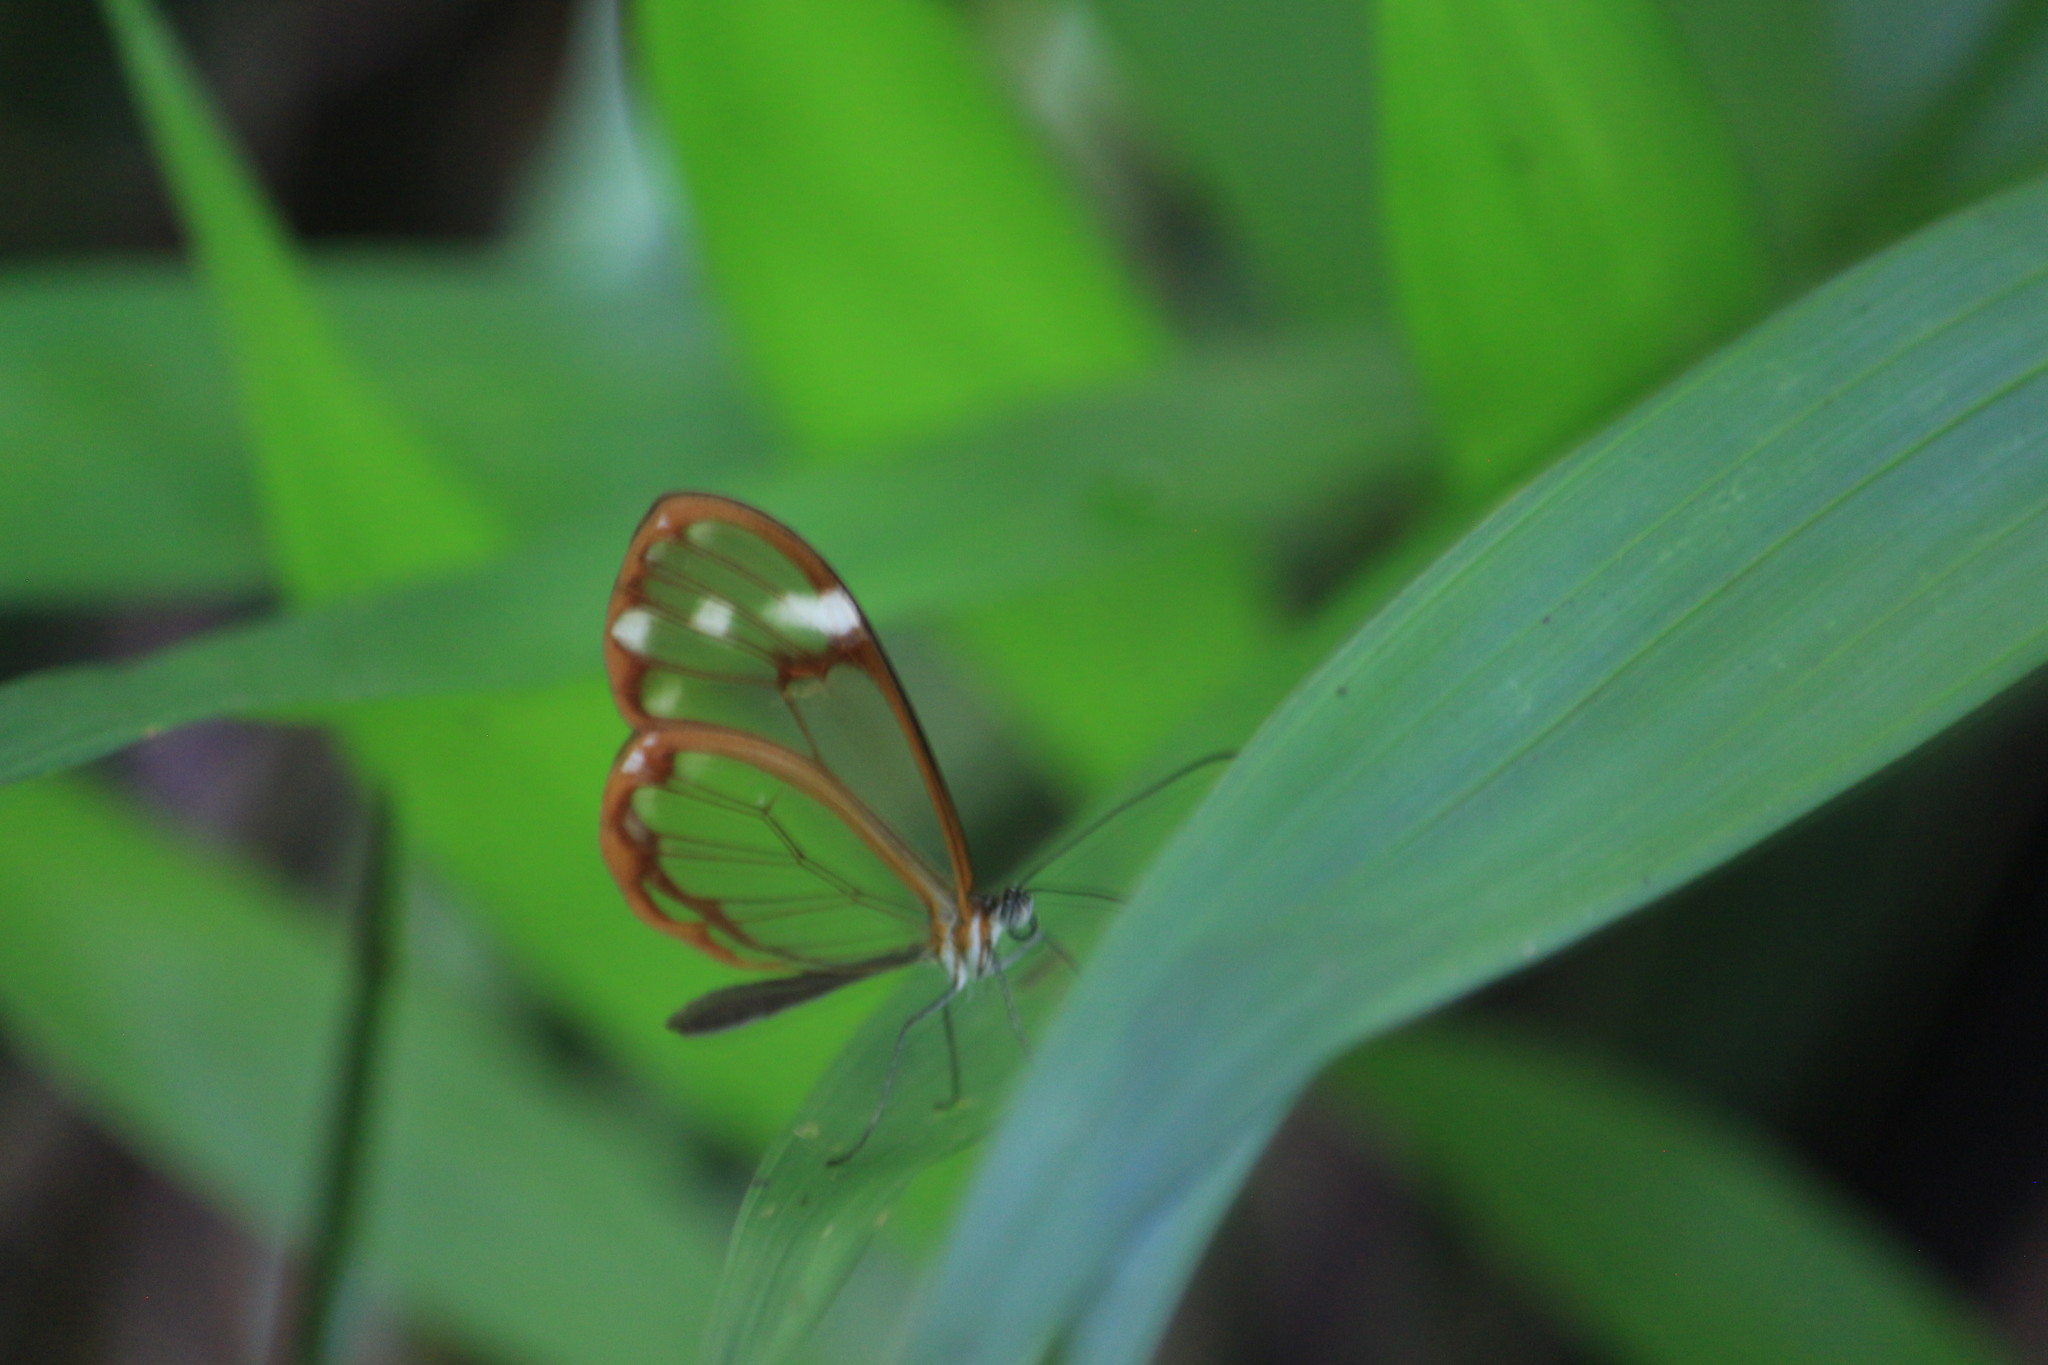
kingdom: Animalia
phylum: Arthropoda
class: Insecta
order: Lepidoptera
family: Nymphalidae
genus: Greta
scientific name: Greta annette
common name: White-spotted clearwing
